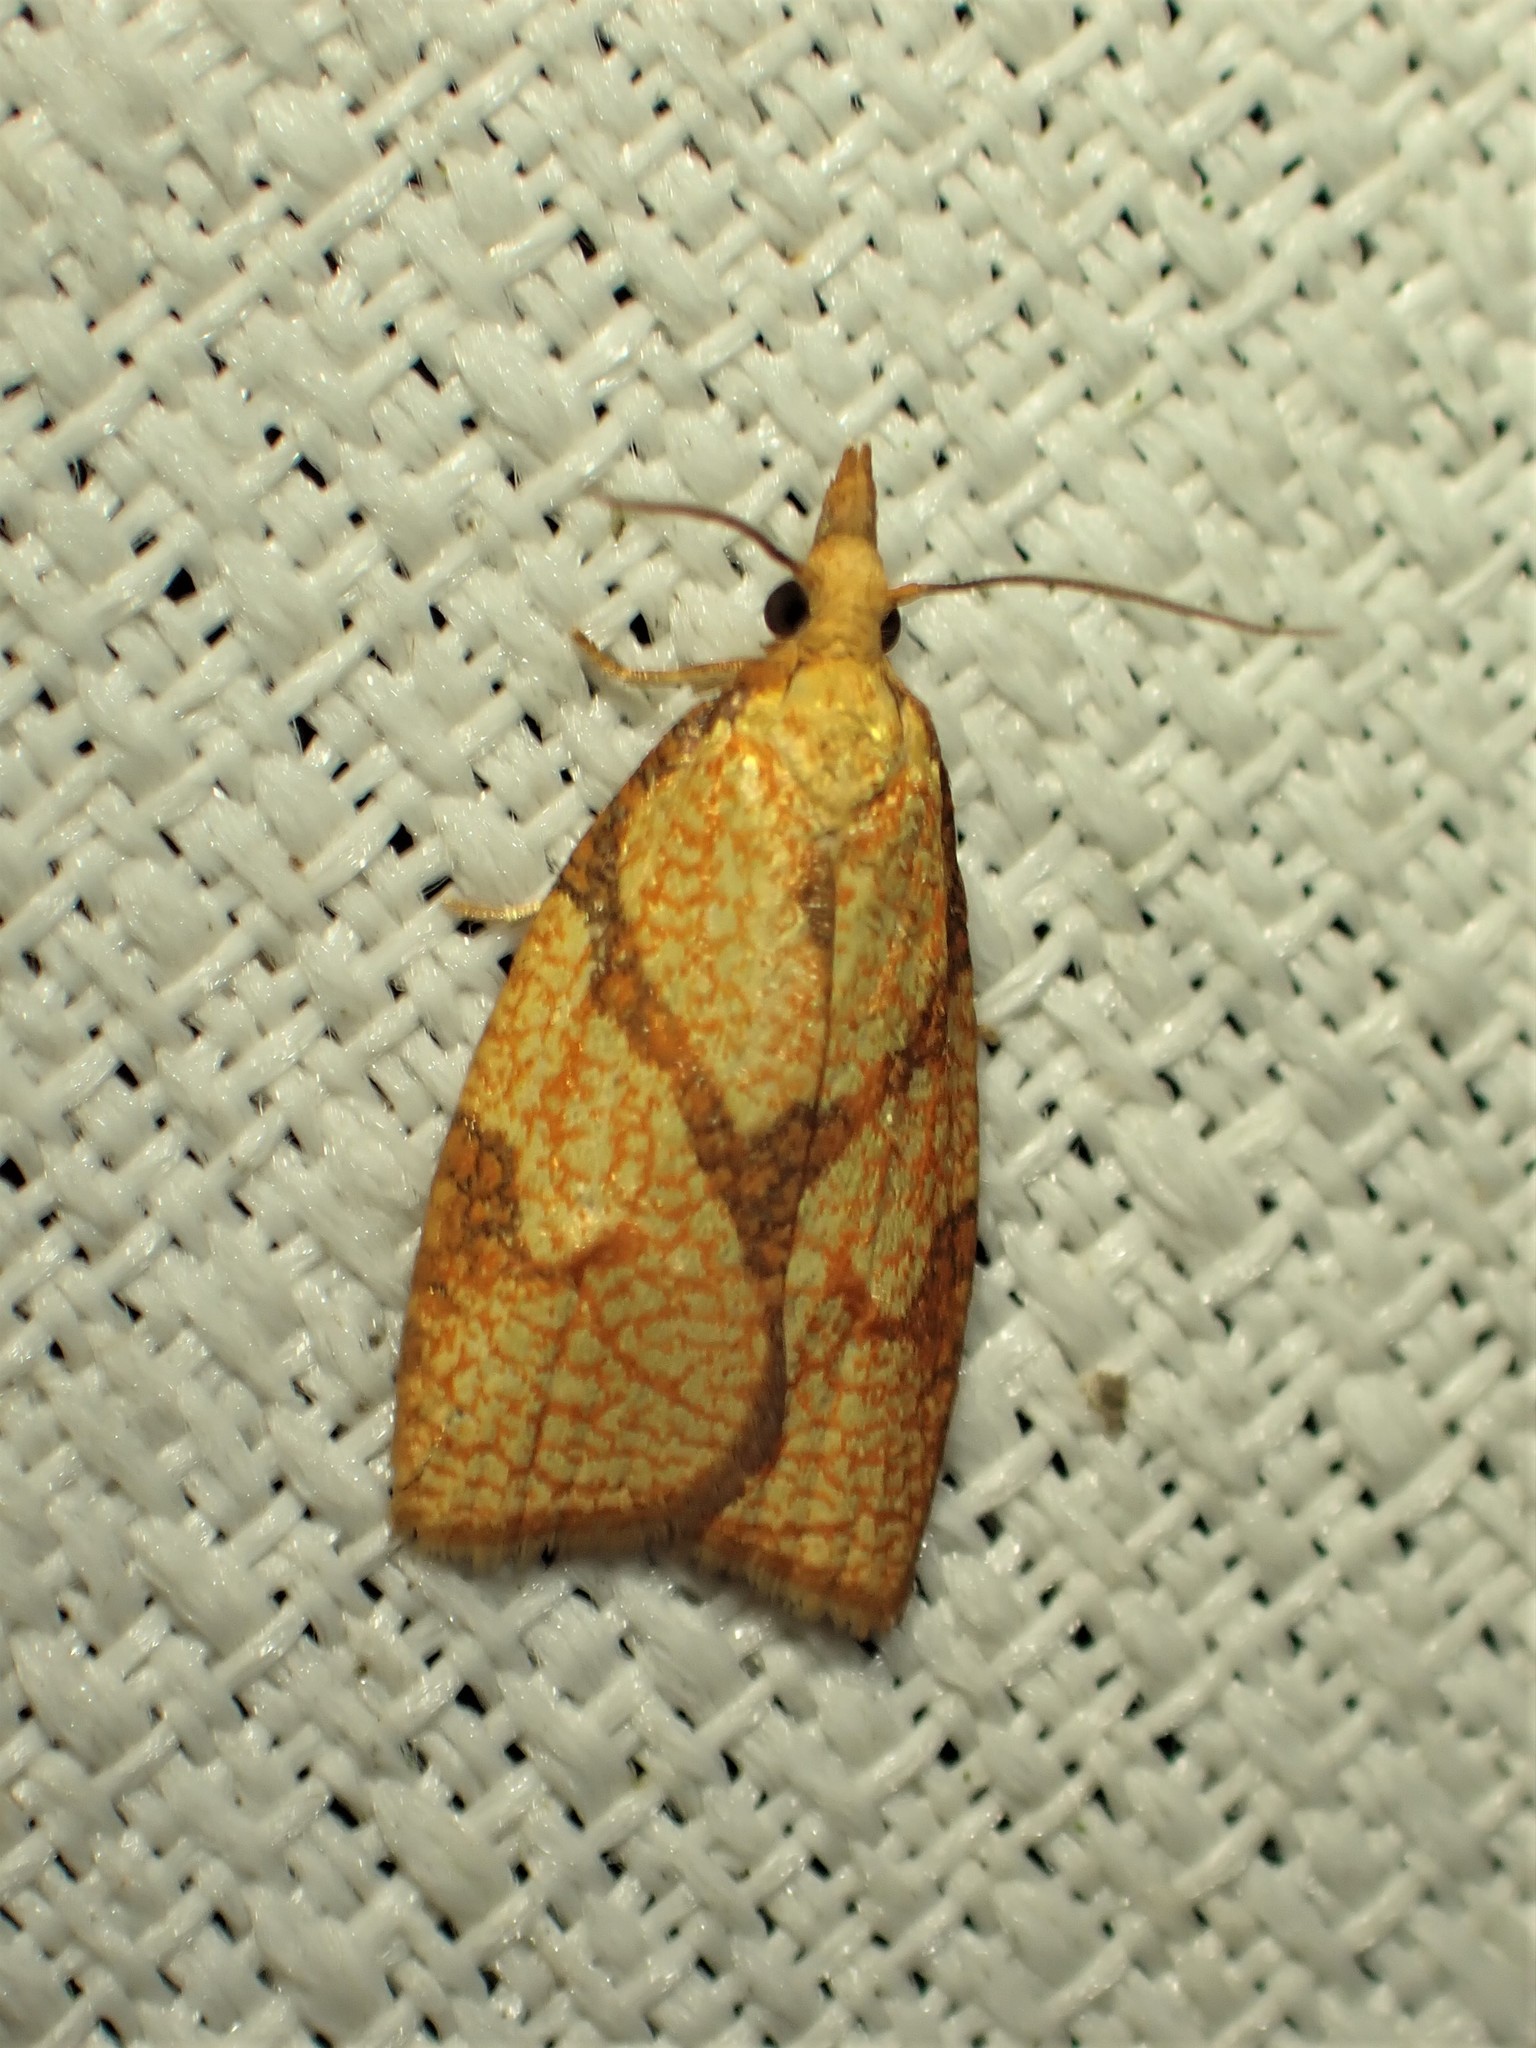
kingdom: Animalia
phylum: Arthropoda
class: Insecta
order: Lepidoptera
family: Tortricidae
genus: Cenopis
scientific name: Cenopis reticulatana
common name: Reticulated fruitworm moth
